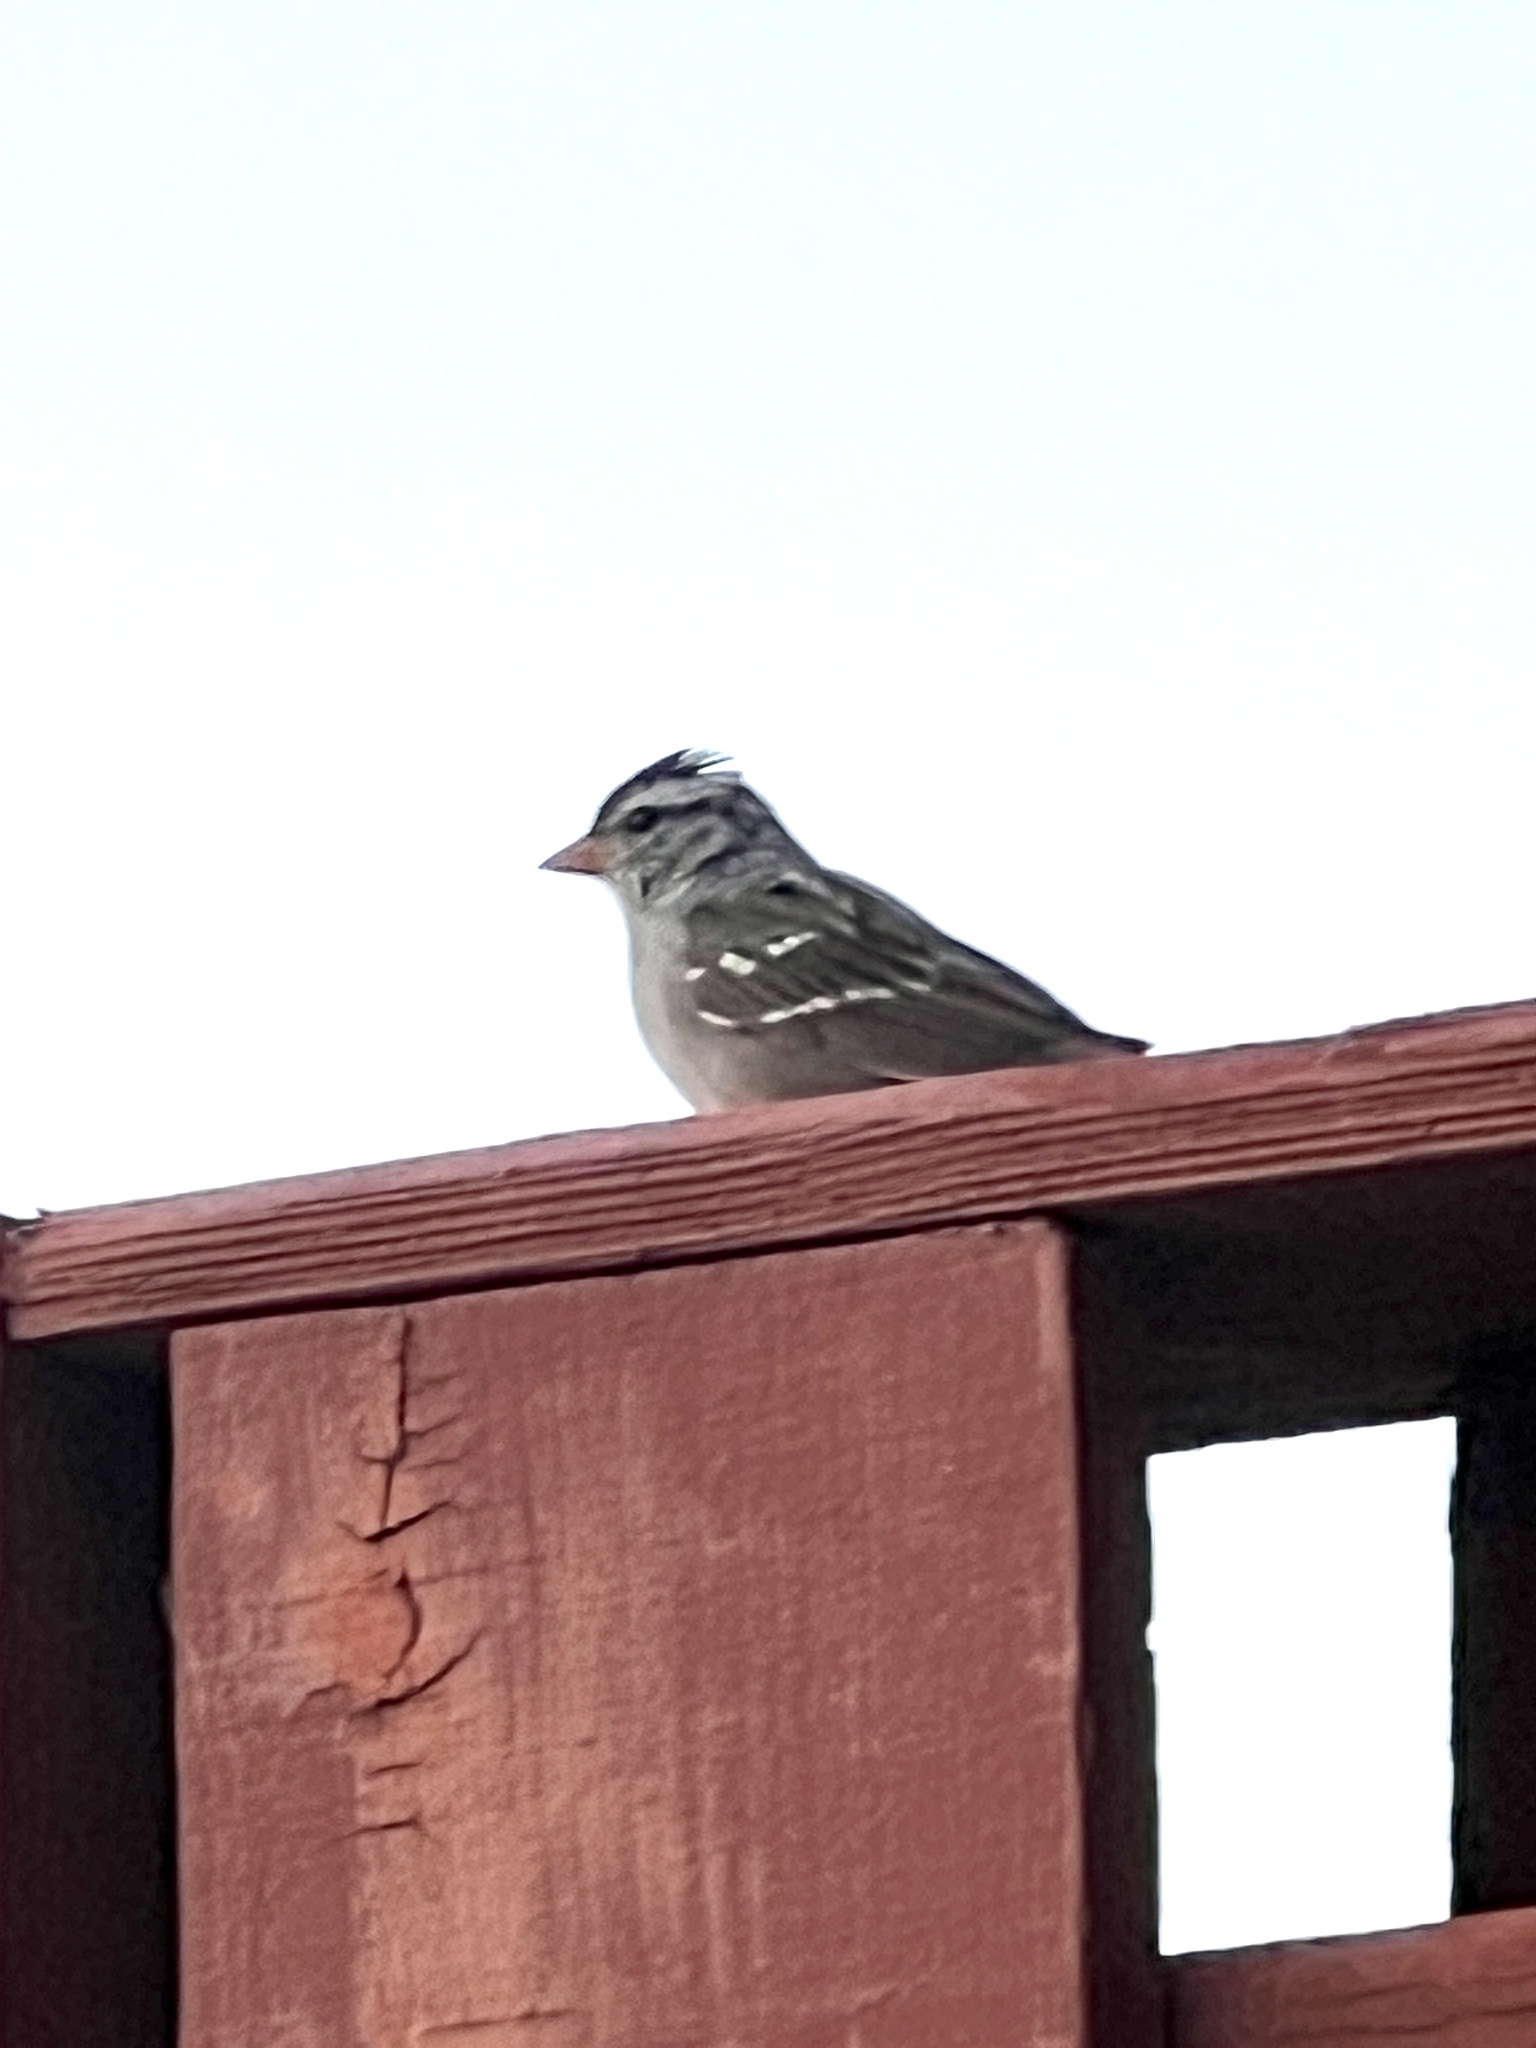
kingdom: Animalia
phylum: Chordata
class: Aves
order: Passeriformes
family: Passerellidae
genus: Zonotrichia
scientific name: Zonotrichia leucophrys
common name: White-crowned sparrow
